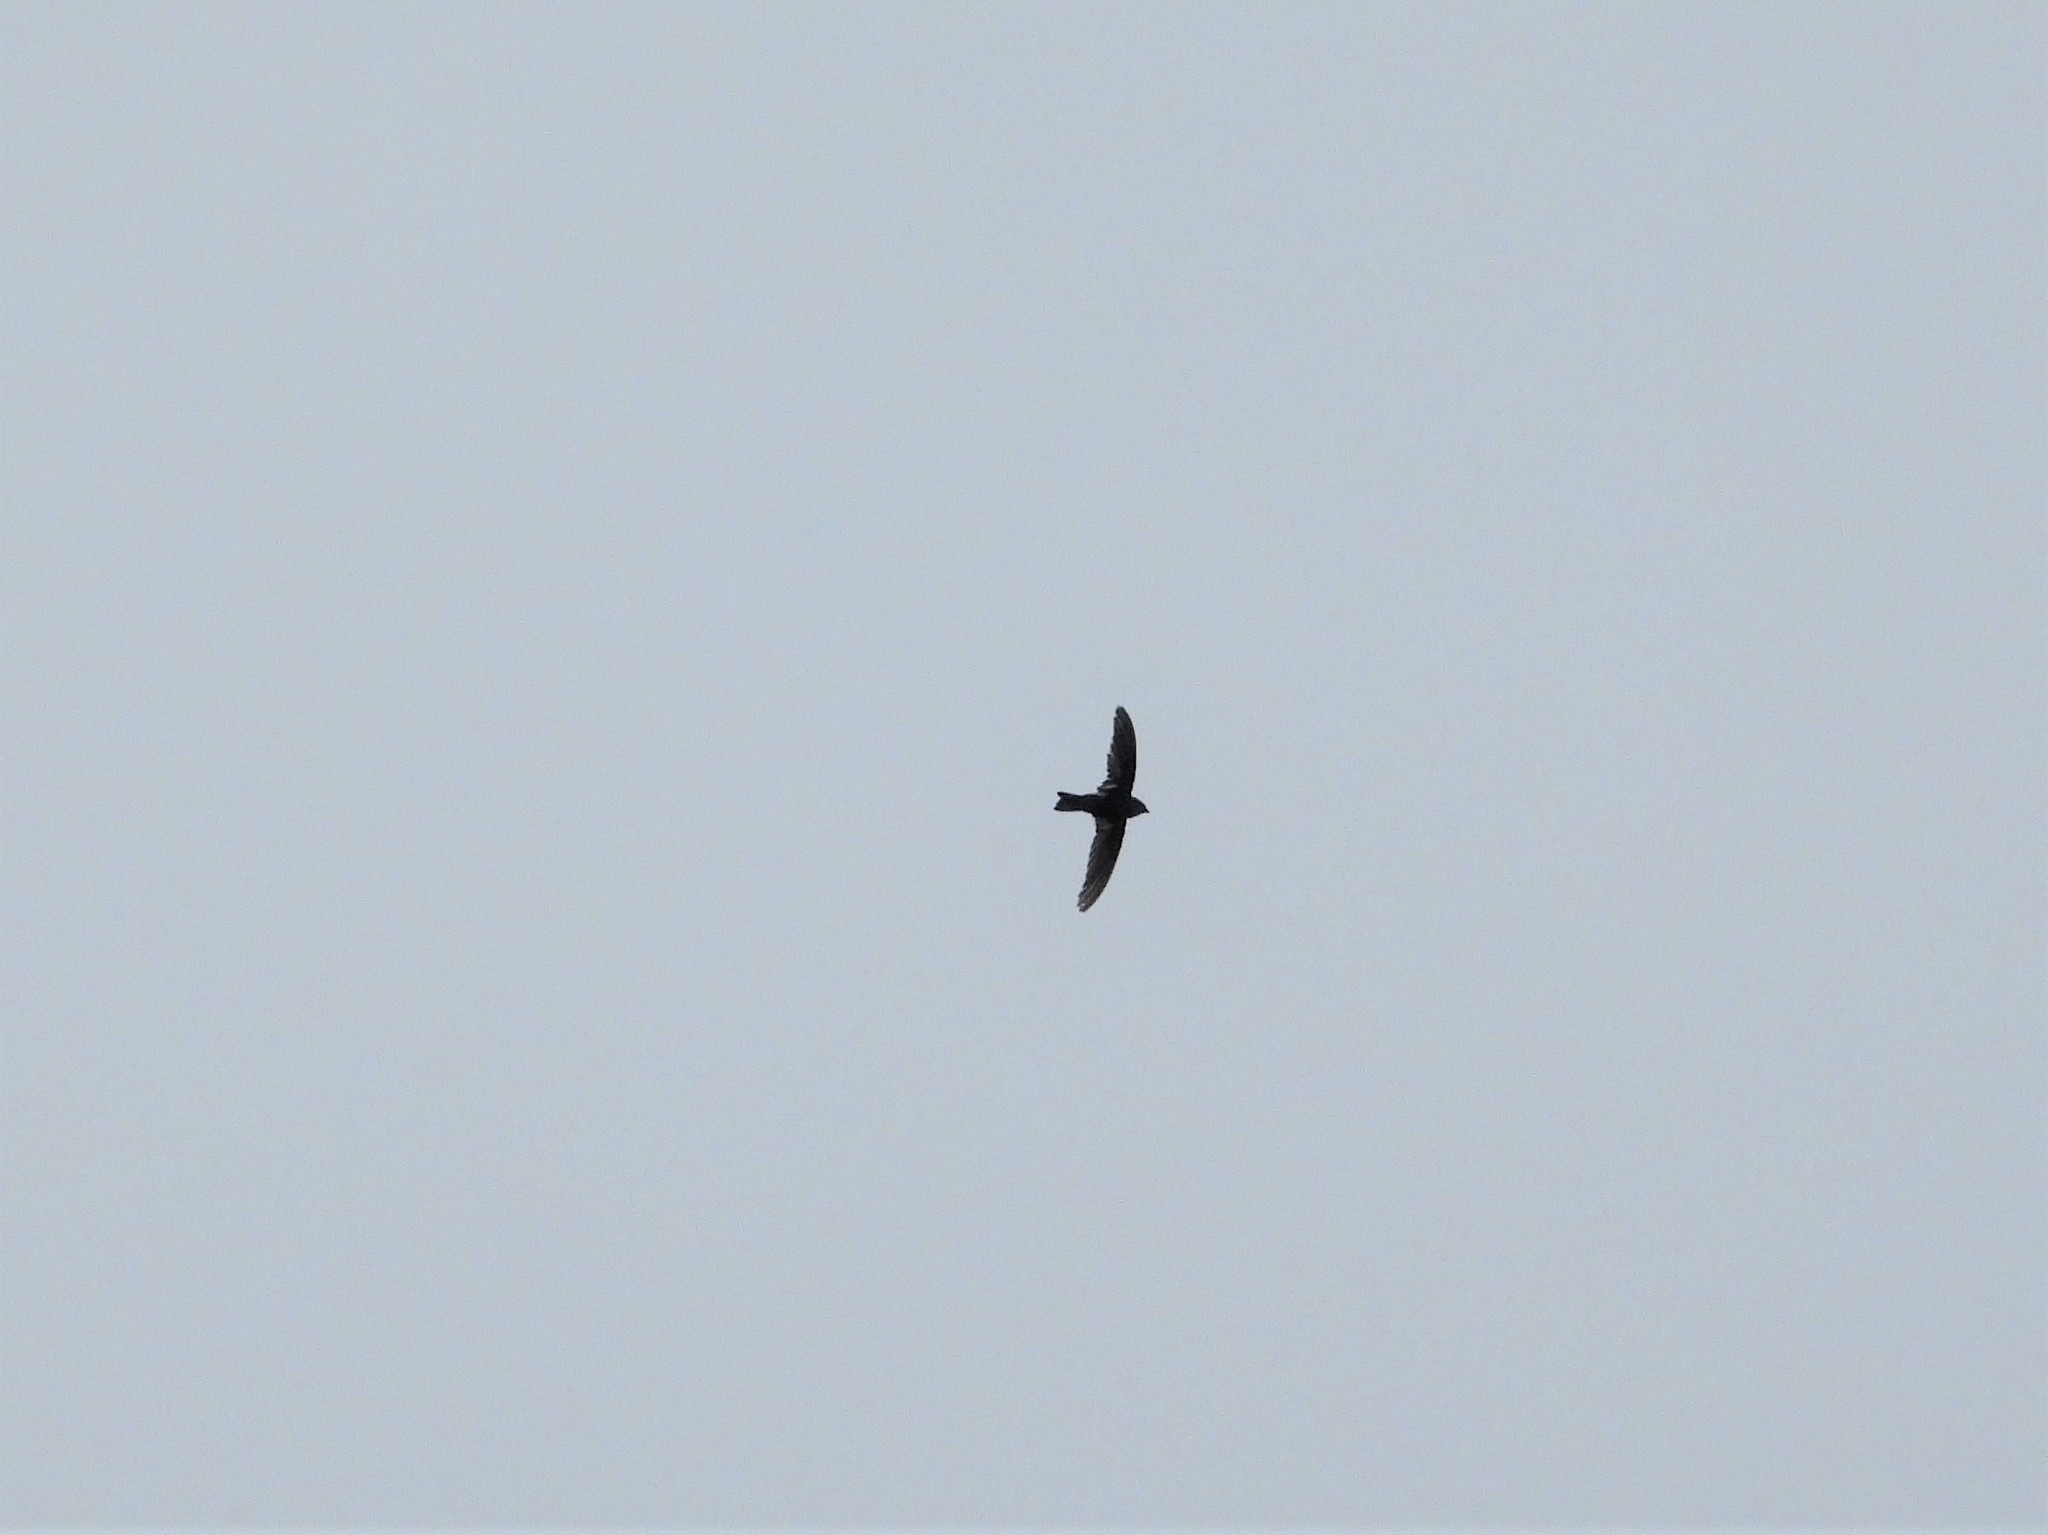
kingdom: Animalia
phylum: Chordata
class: Aves
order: Apodiformes
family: Apodidae
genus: Apus
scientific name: Apus nipalensis
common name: House swift
